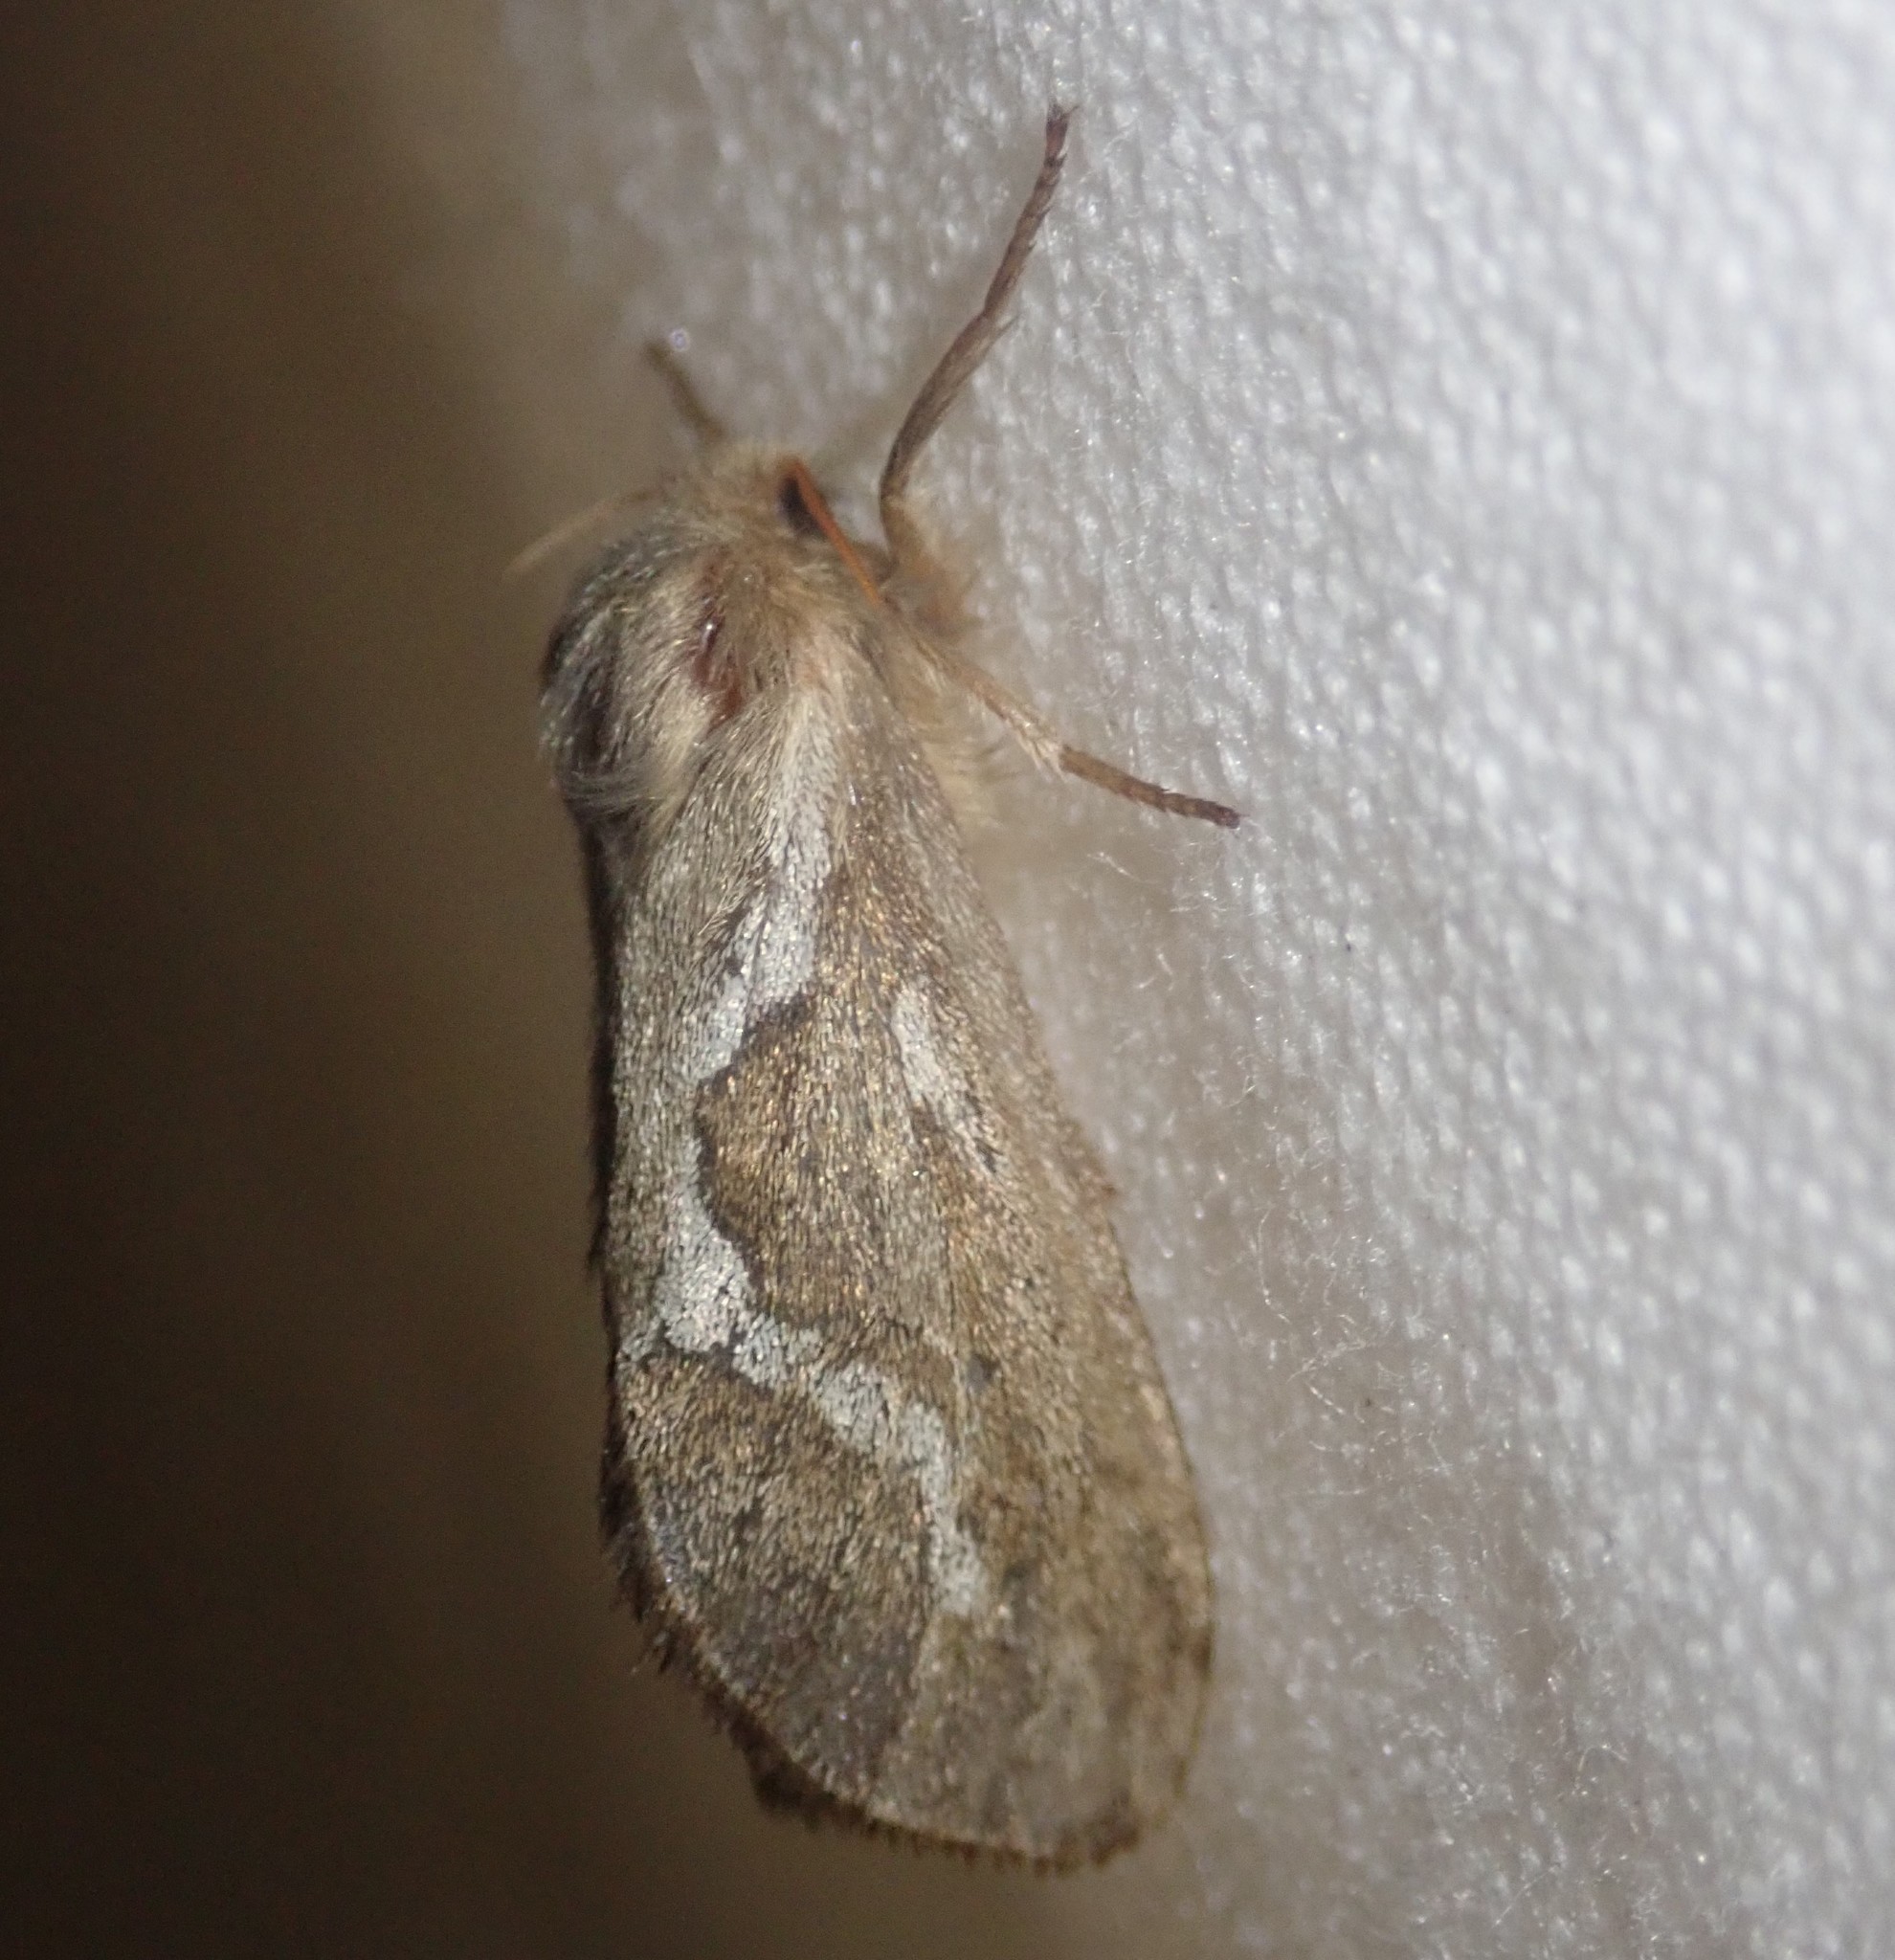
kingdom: Animalia
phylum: Arthropoda
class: Insecta
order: Lepidoptera
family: Hepialidae
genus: Korscheltellus
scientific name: Korscheltellus lupulina
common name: Common swift
